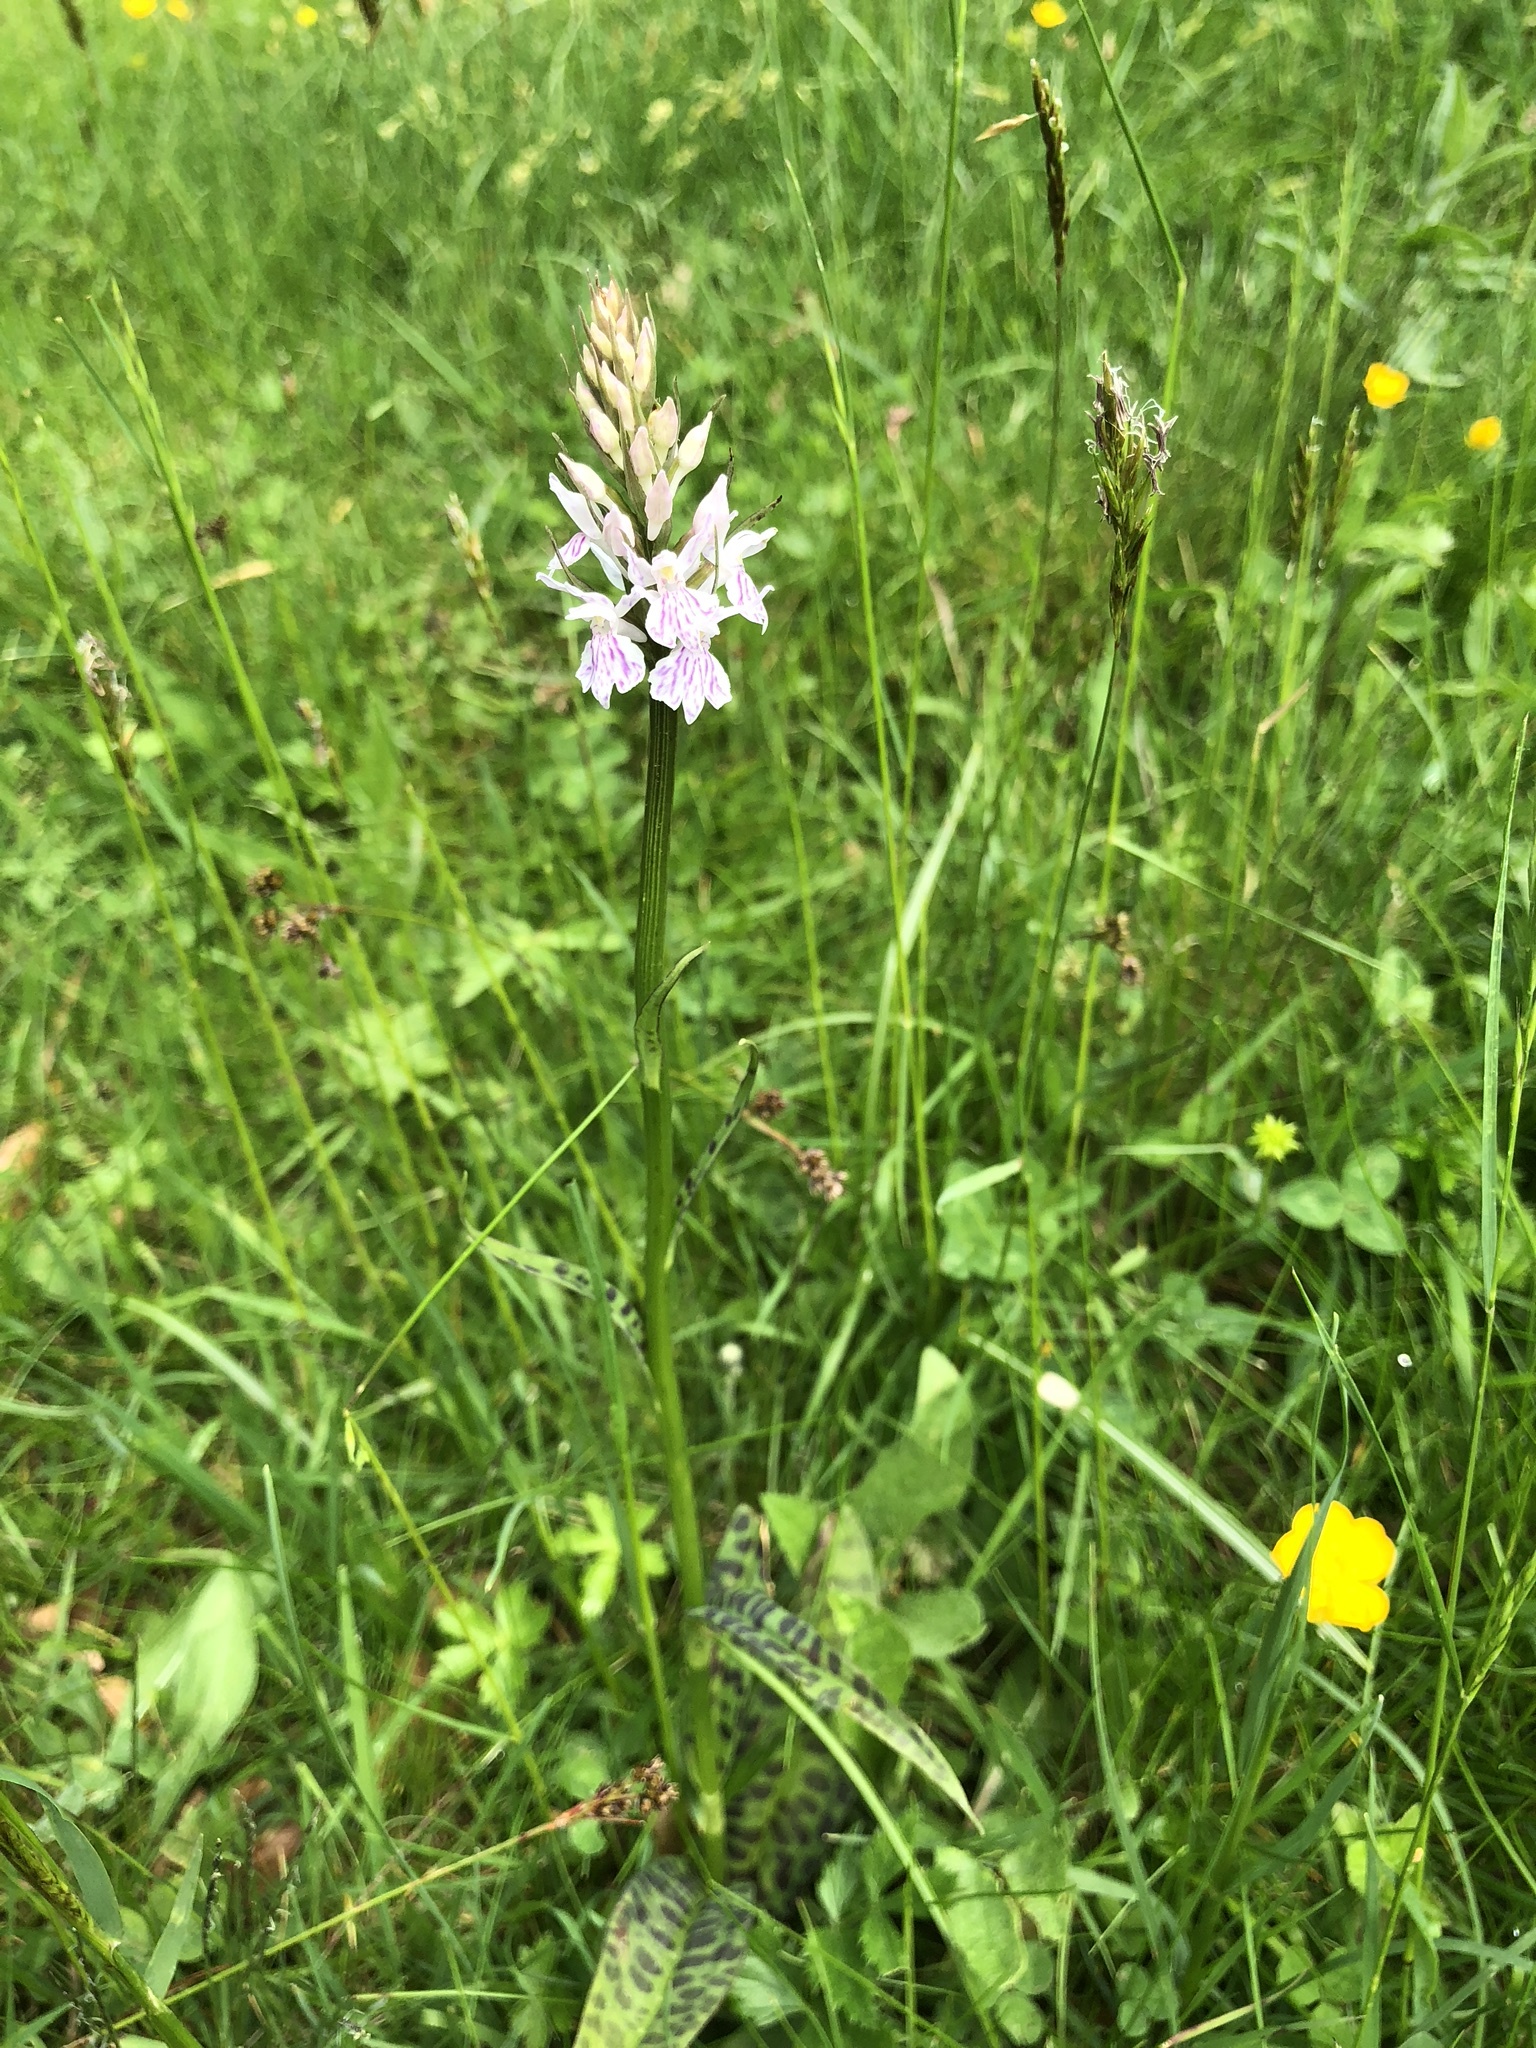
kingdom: Plantae
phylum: Tracheophyta
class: Liliopsida
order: Asparagales
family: Orchidaceae
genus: Dactylorhiza
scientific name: Dactylorhiza maculata
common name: Heath spotted-orchid
